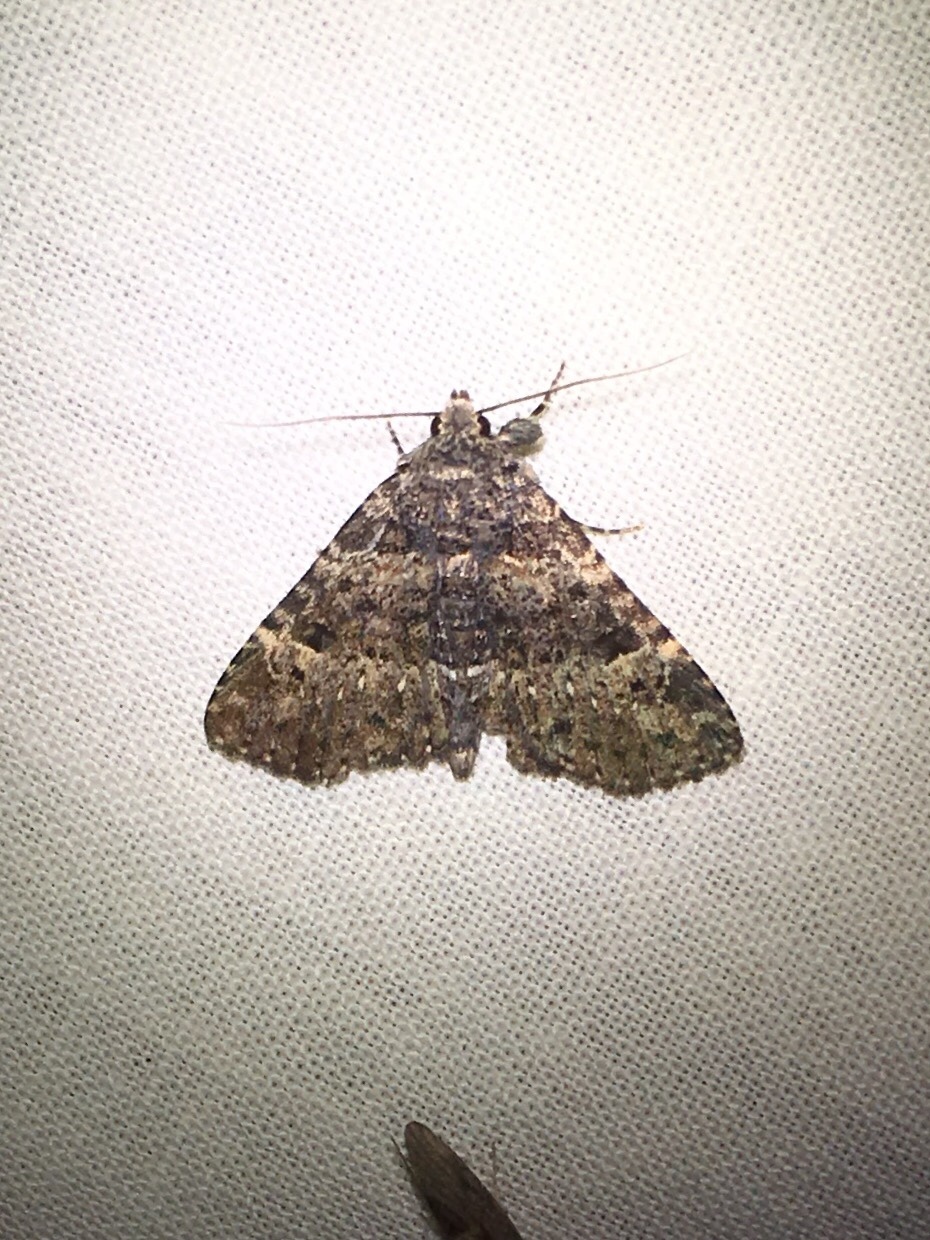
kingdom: Animalia
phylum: Arthropoda
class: Insecta
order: Lepidoptera
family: Erebidae
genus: Metalectra
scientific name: Metalectra discalis
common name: Common fungus moth
